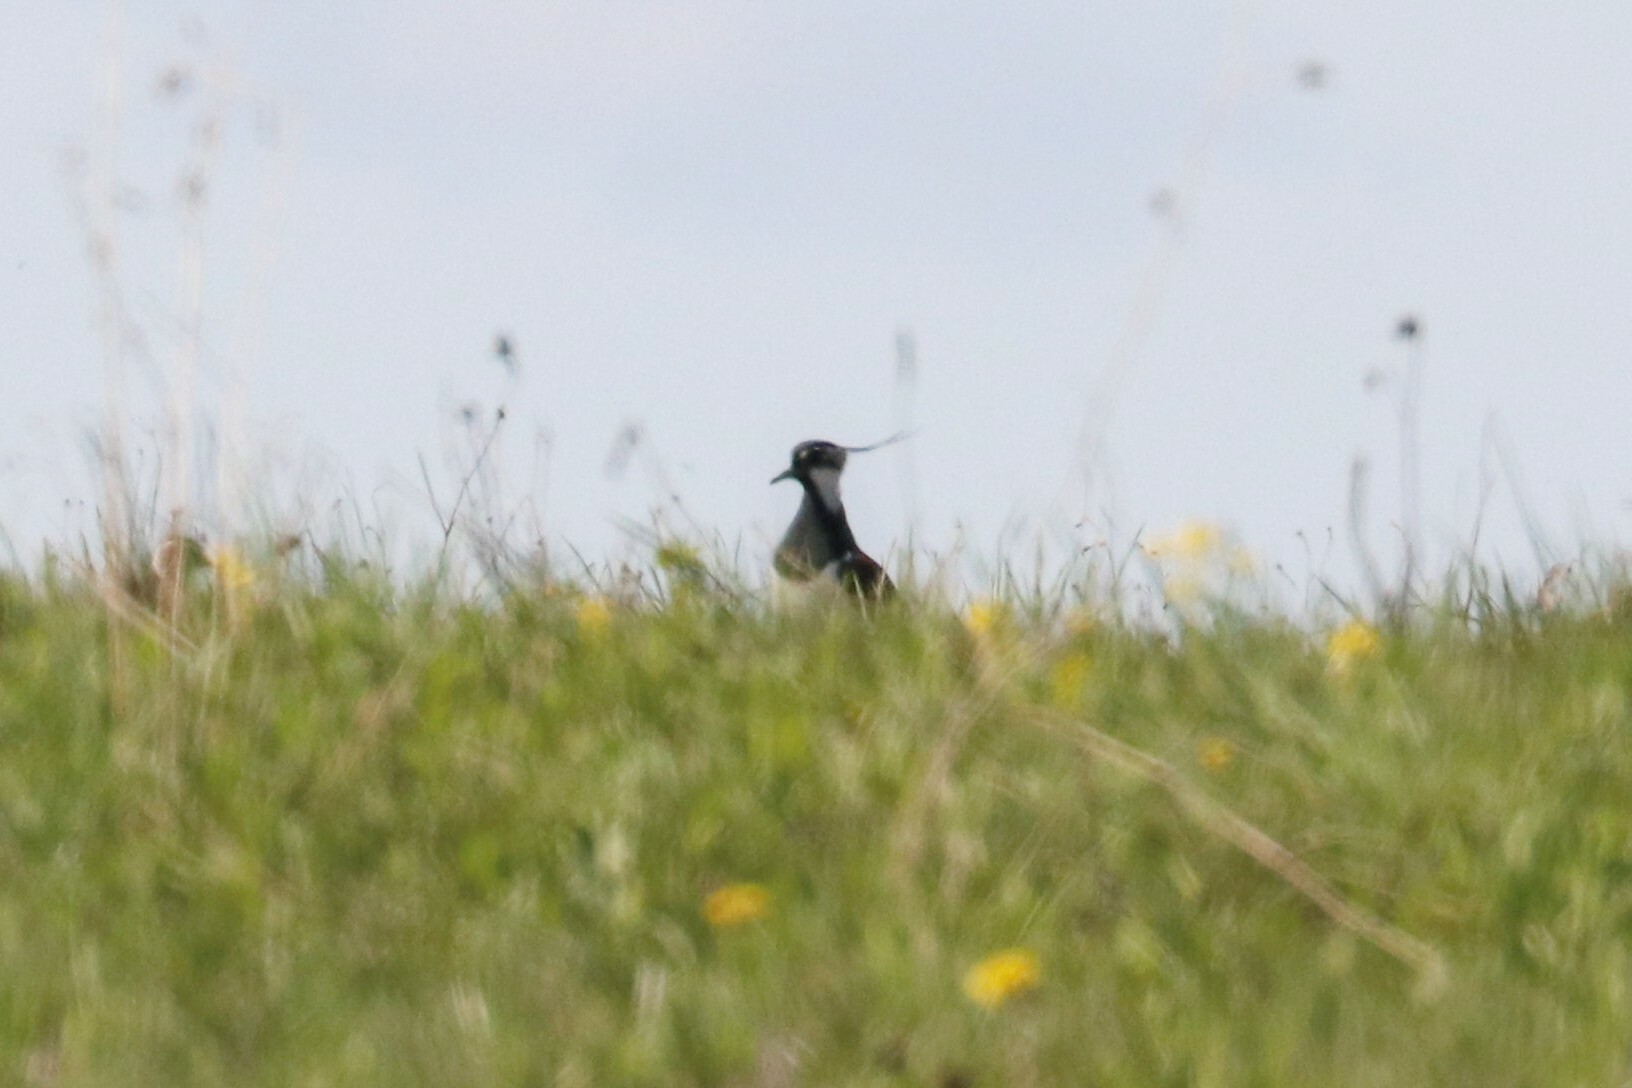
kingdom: Animalia
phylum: Chordata
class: Aves
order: Charadriiformes
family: Charadriidae
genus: Vanellus
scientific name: Vanellus vanellus
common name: Northern lapwing
